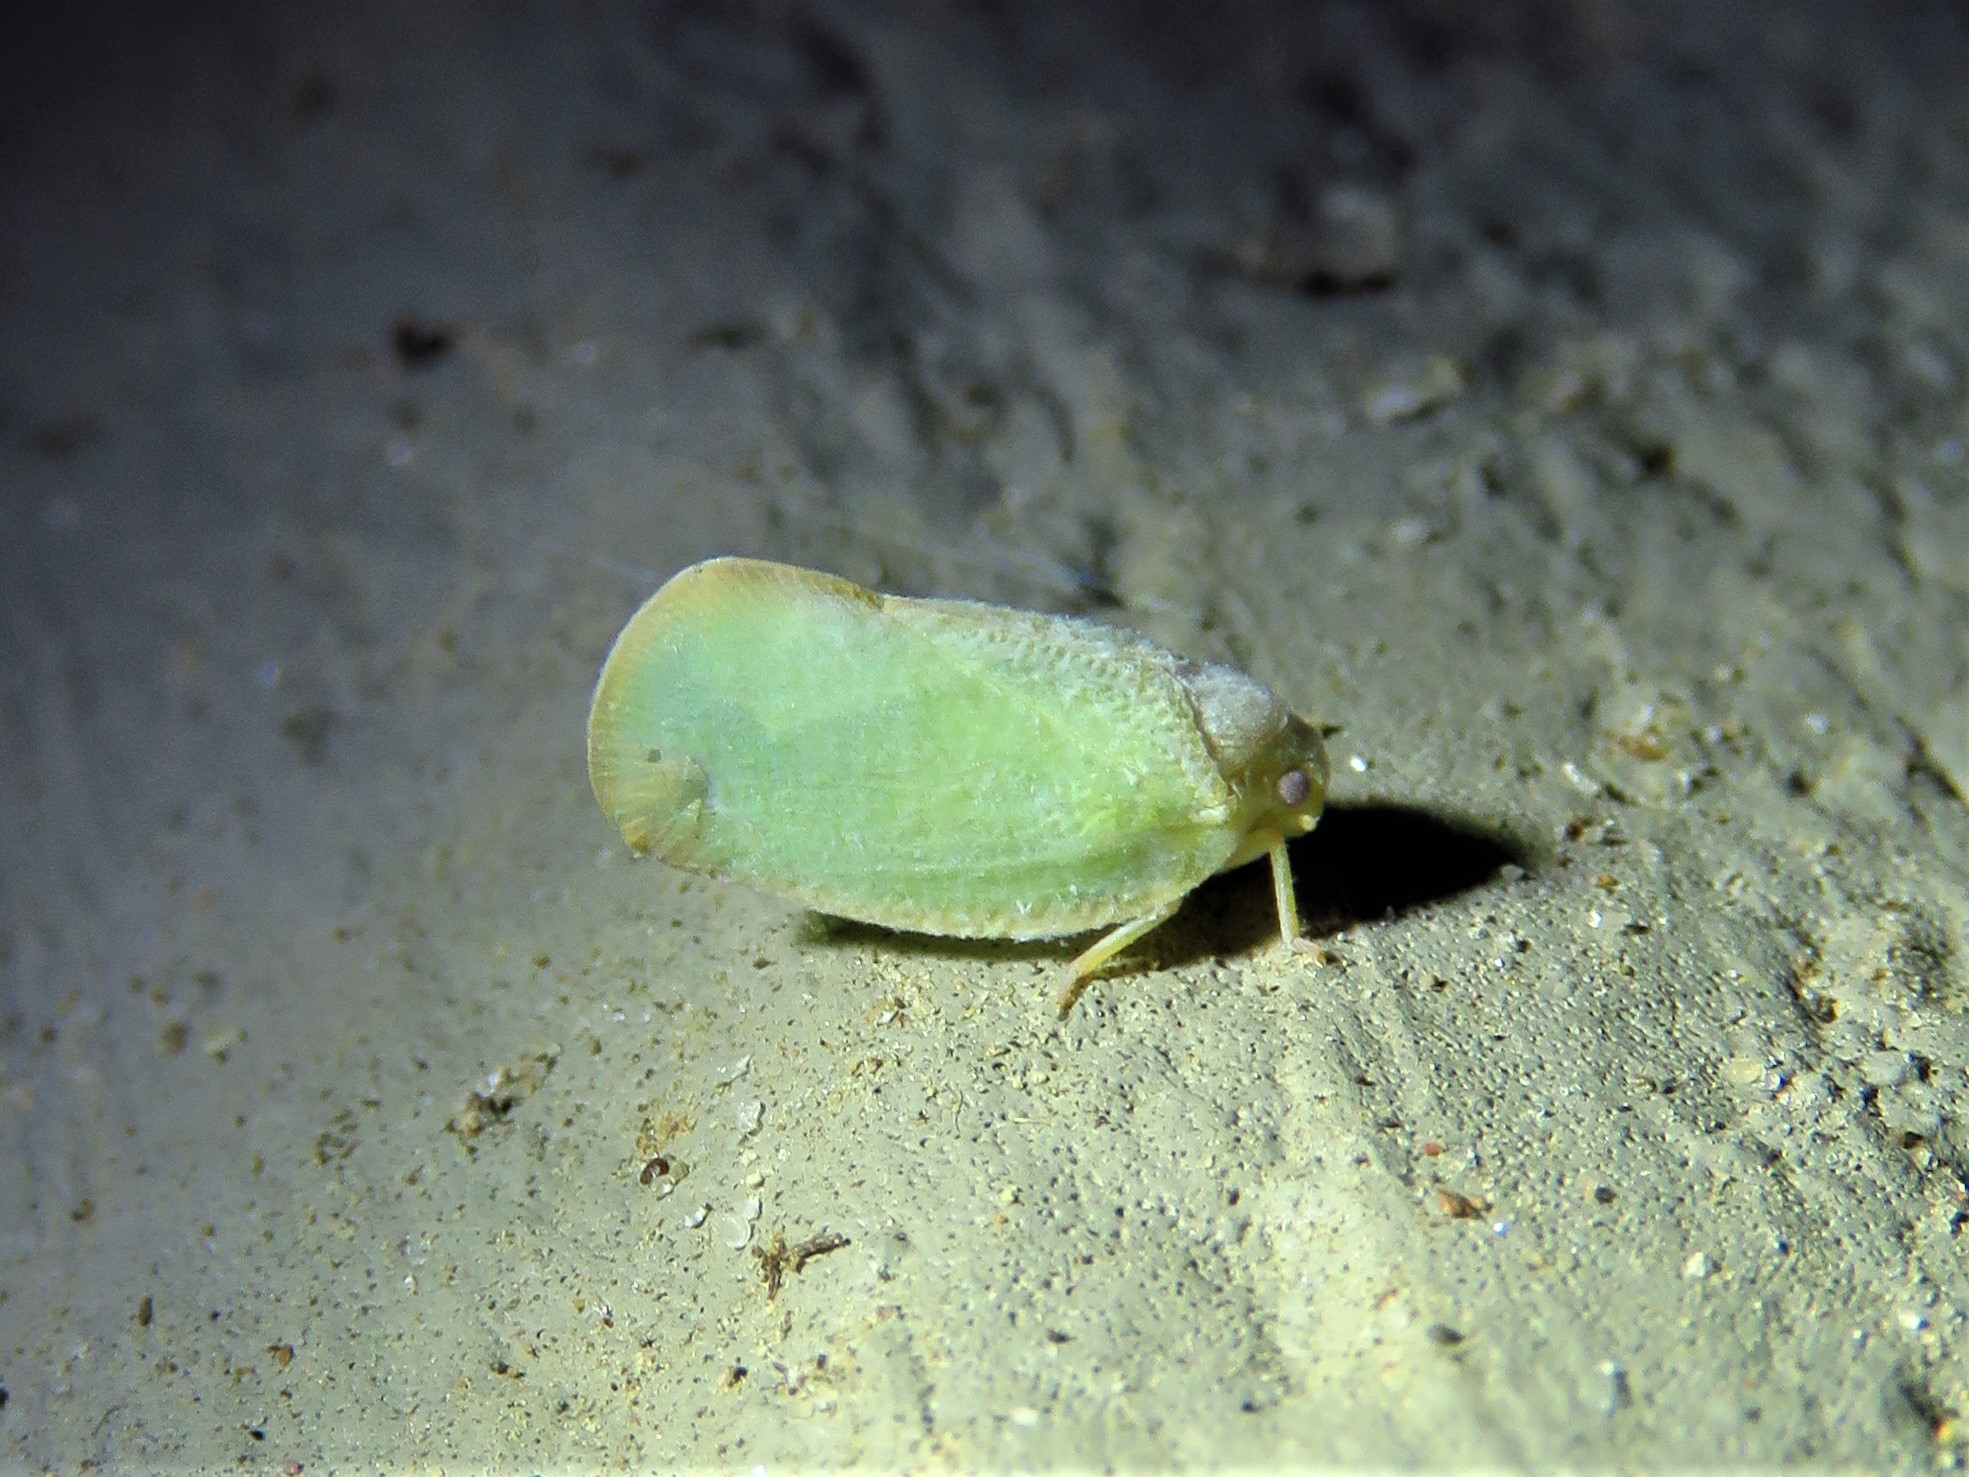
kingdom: Animalia
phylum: Arthropoda
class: Insecta
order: Hemiptera
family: Flatidae
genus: Ormenoides
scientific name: Ormenoides venusta
